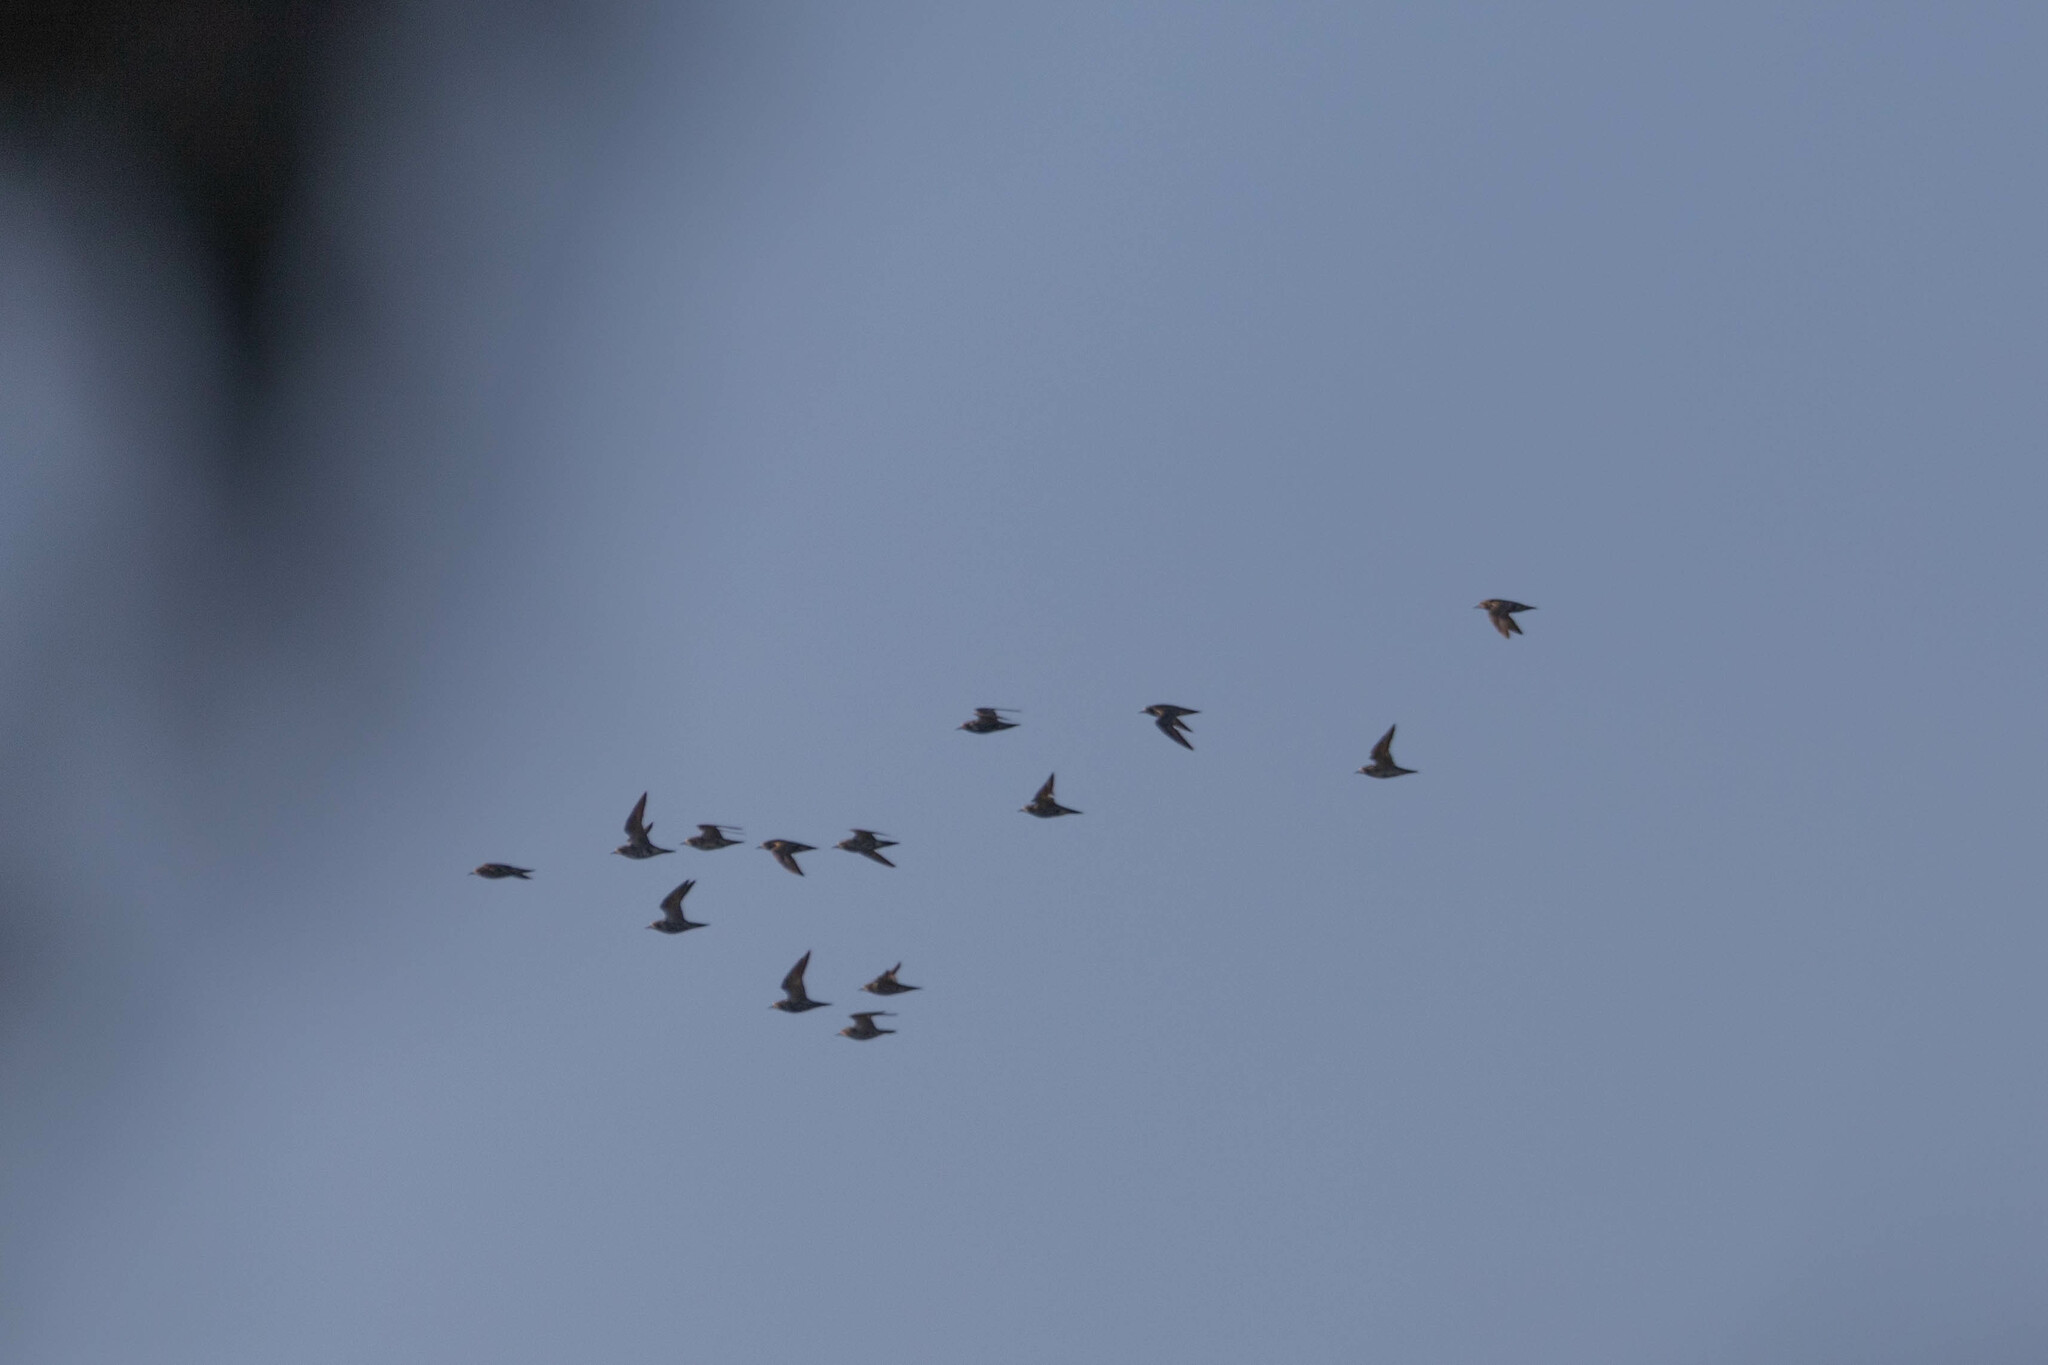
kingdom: Animalia
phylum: Chordata
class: Aves
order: Charadriiformes
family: Charadriidae
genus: Pluvialis
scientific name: Pluvialis dominica
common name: American golden plover
